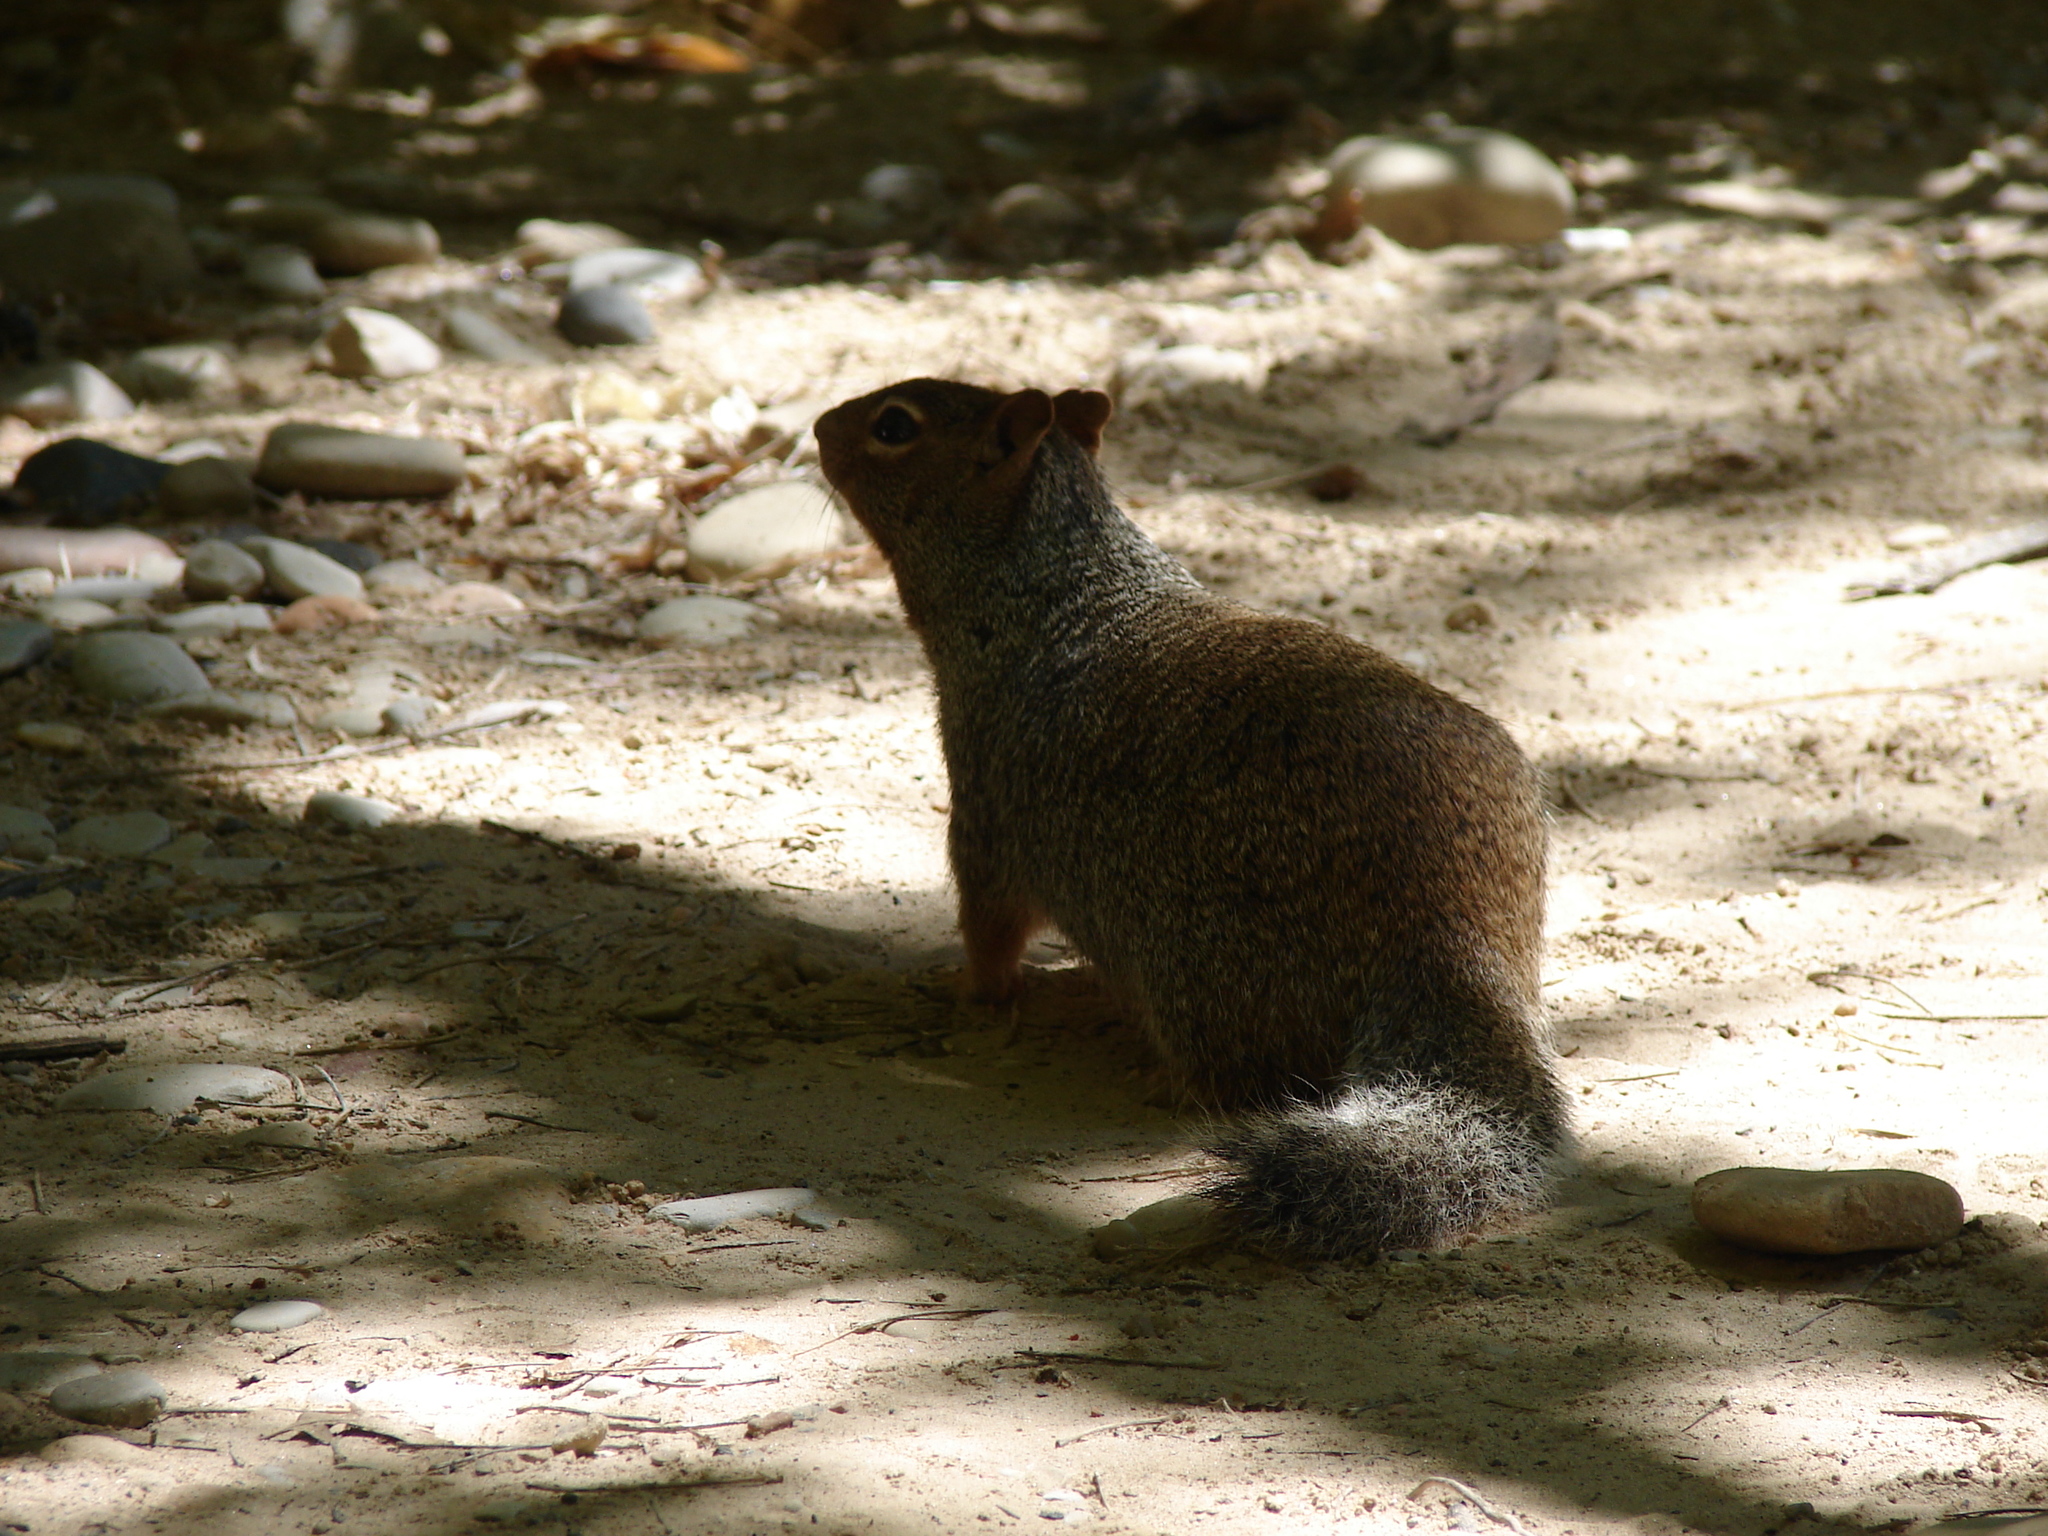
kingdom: Animalia
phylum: Chordata
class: Mammalia
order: Rodentia
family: Sciuridae
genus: Otospermophilus
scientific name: Otospermophilus variegatus
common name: Rock squirrel
